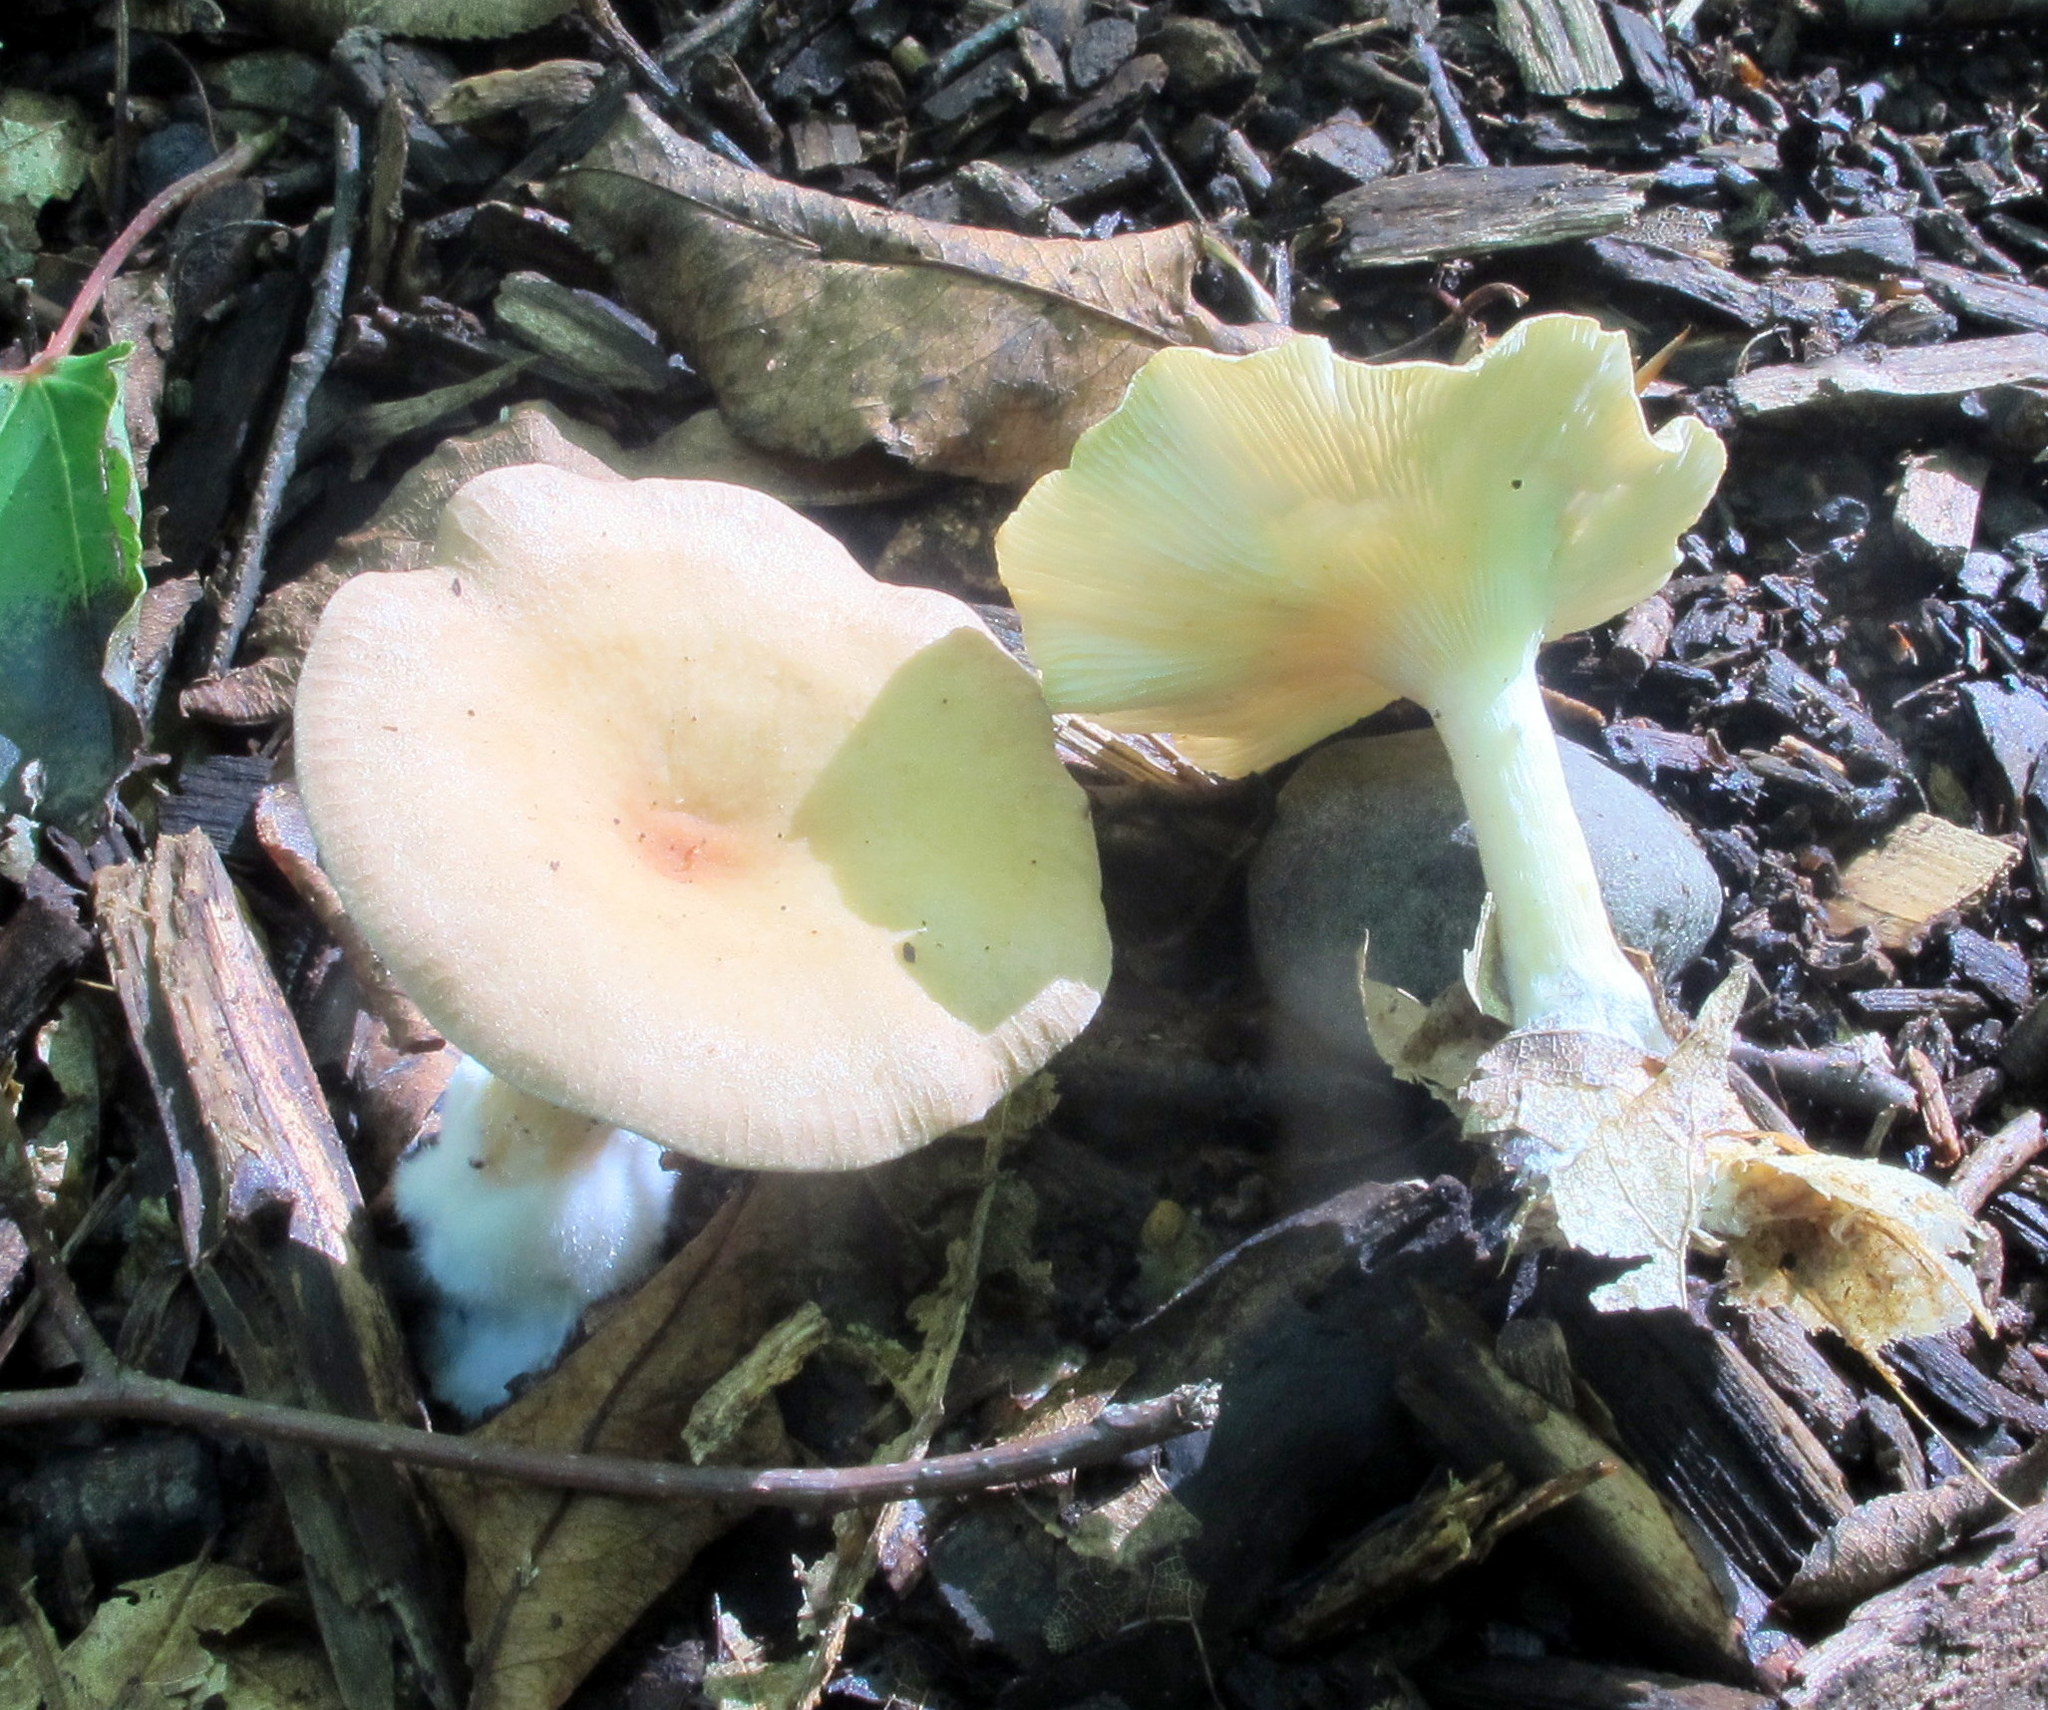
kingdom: Fungi
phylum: Basidiomycota
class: Agaricomycetes
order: Agaricales
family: Tricholomataceae
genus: Infundibulicybe
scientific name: Infundibulicybe gibba
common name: Common funnel
